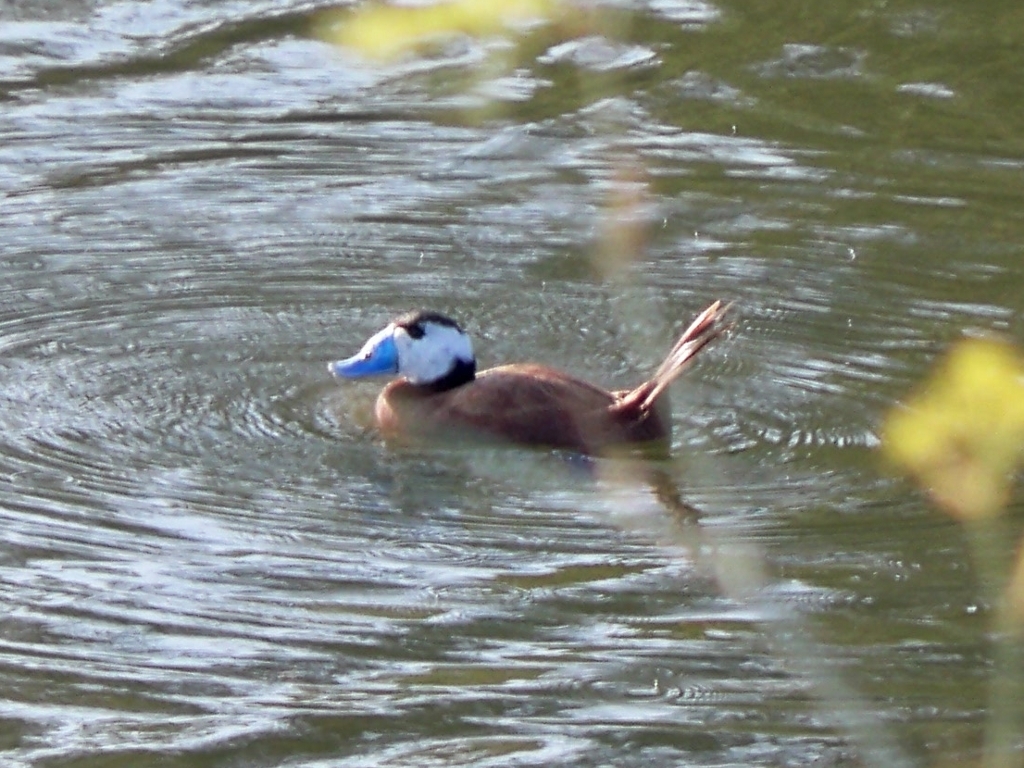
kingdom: Animalia
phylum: Chordata
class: Aves
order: Anseriformes
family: Anatidae
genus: Oxyura
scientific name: Oxyura leucocephala
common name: White-headed duck
